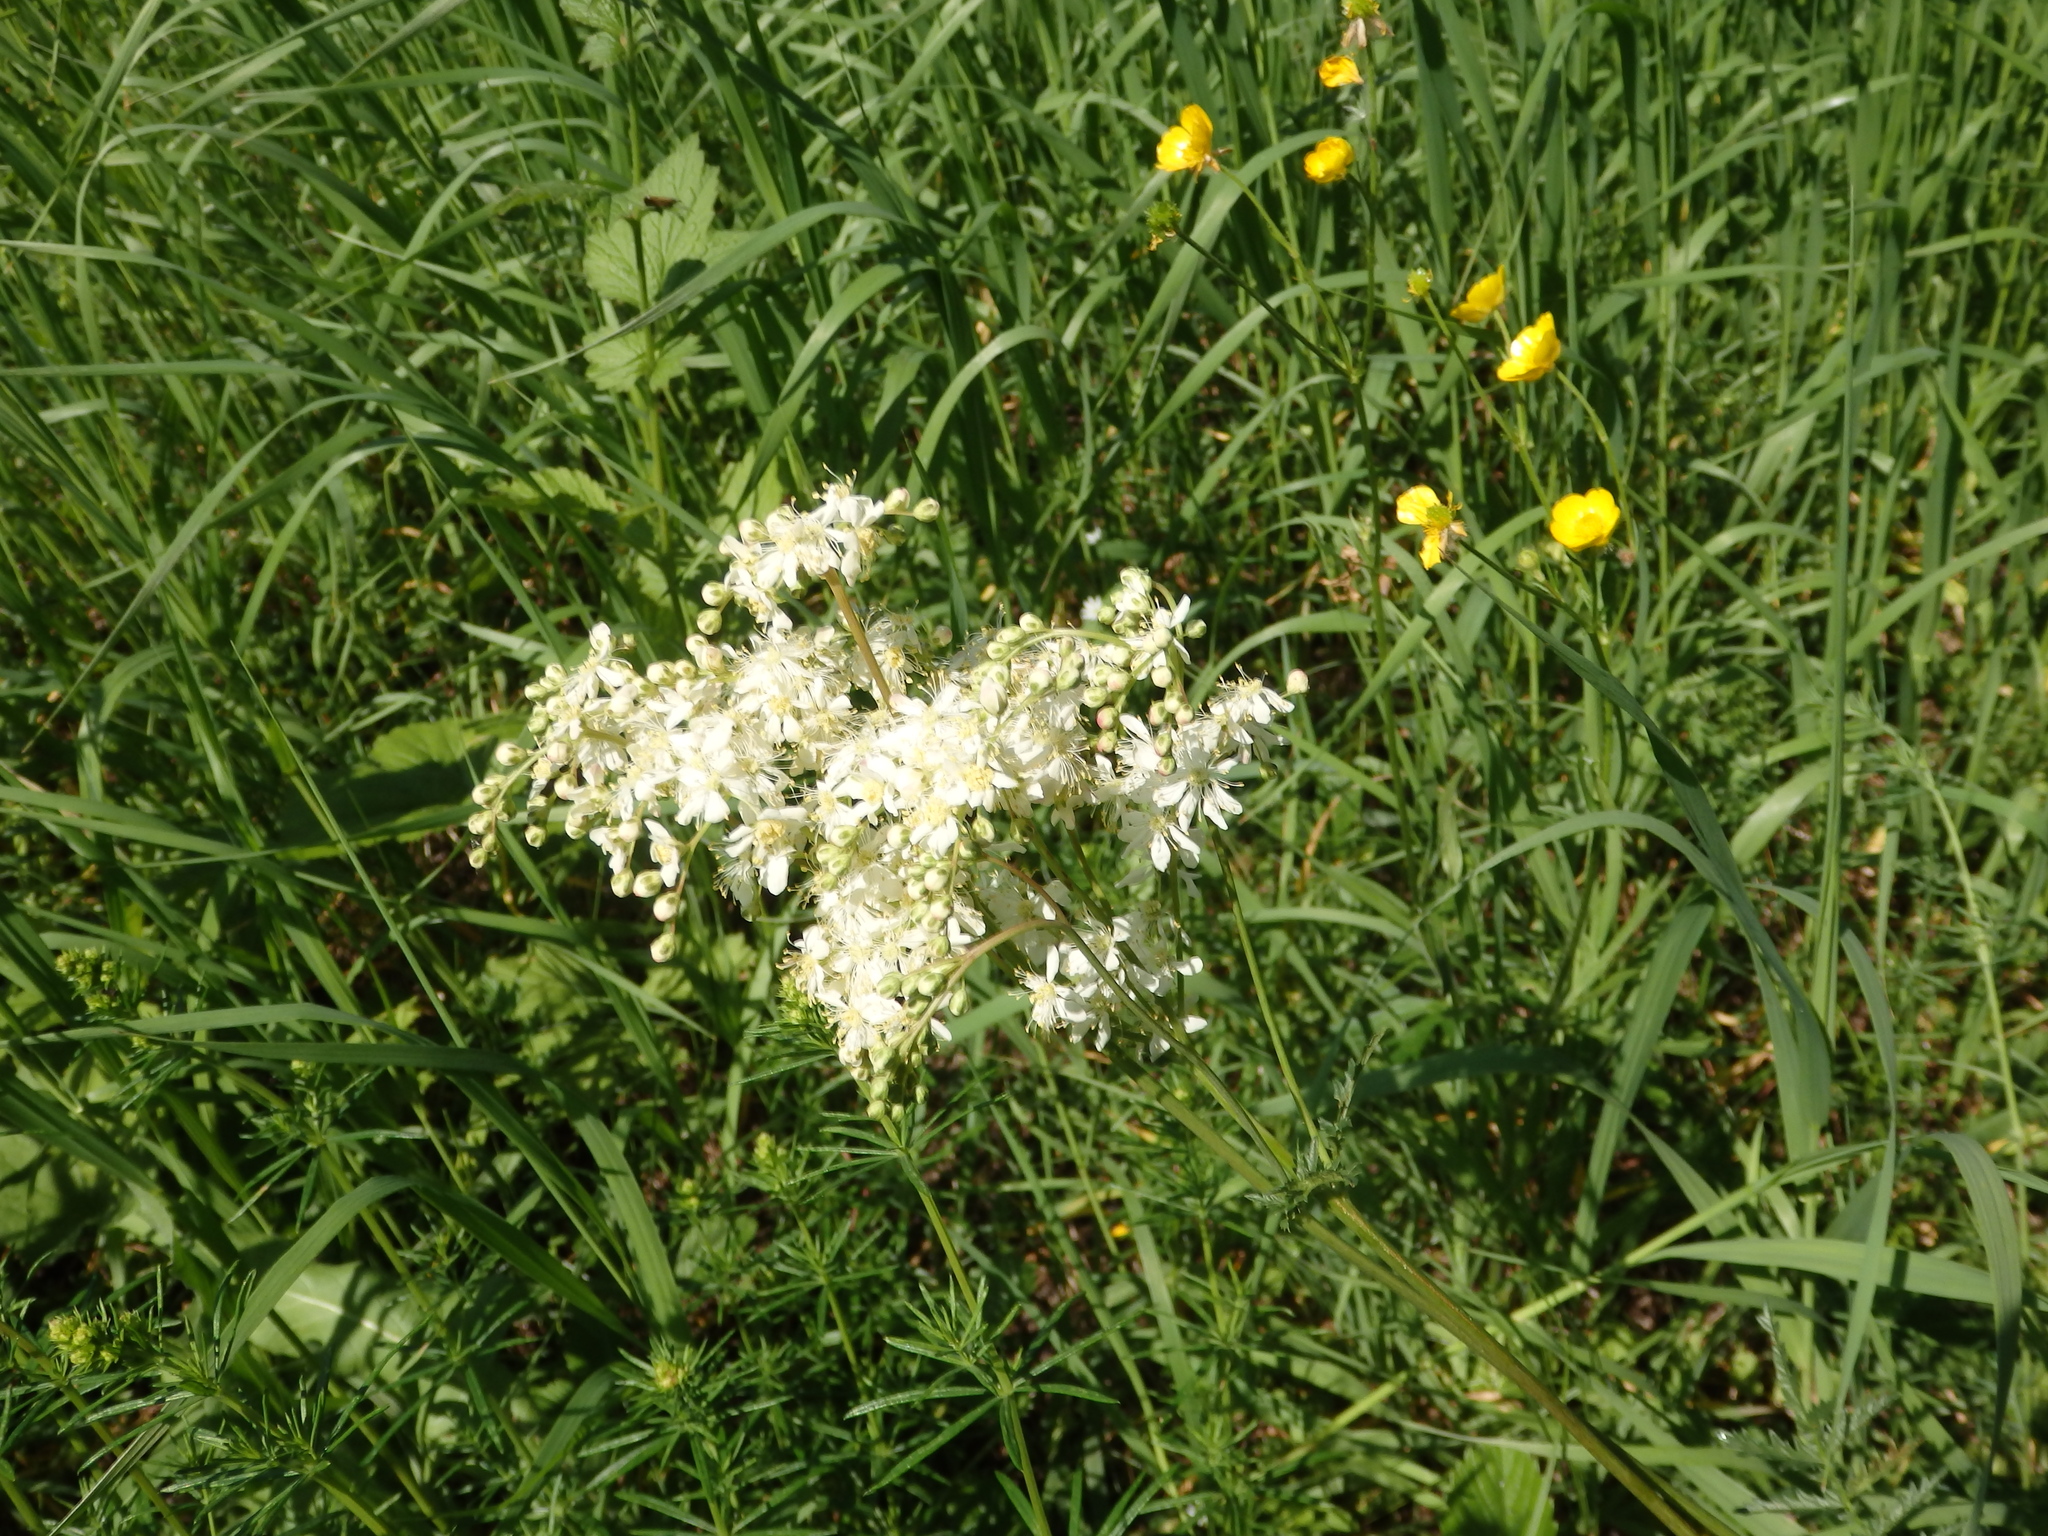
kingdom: Plantae
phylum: Tracheophyta
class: Magnoliopsida
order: Rosales
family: Rosaceae
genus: Filipendula
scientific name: Filipendula vulgaris
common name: Dropwort
